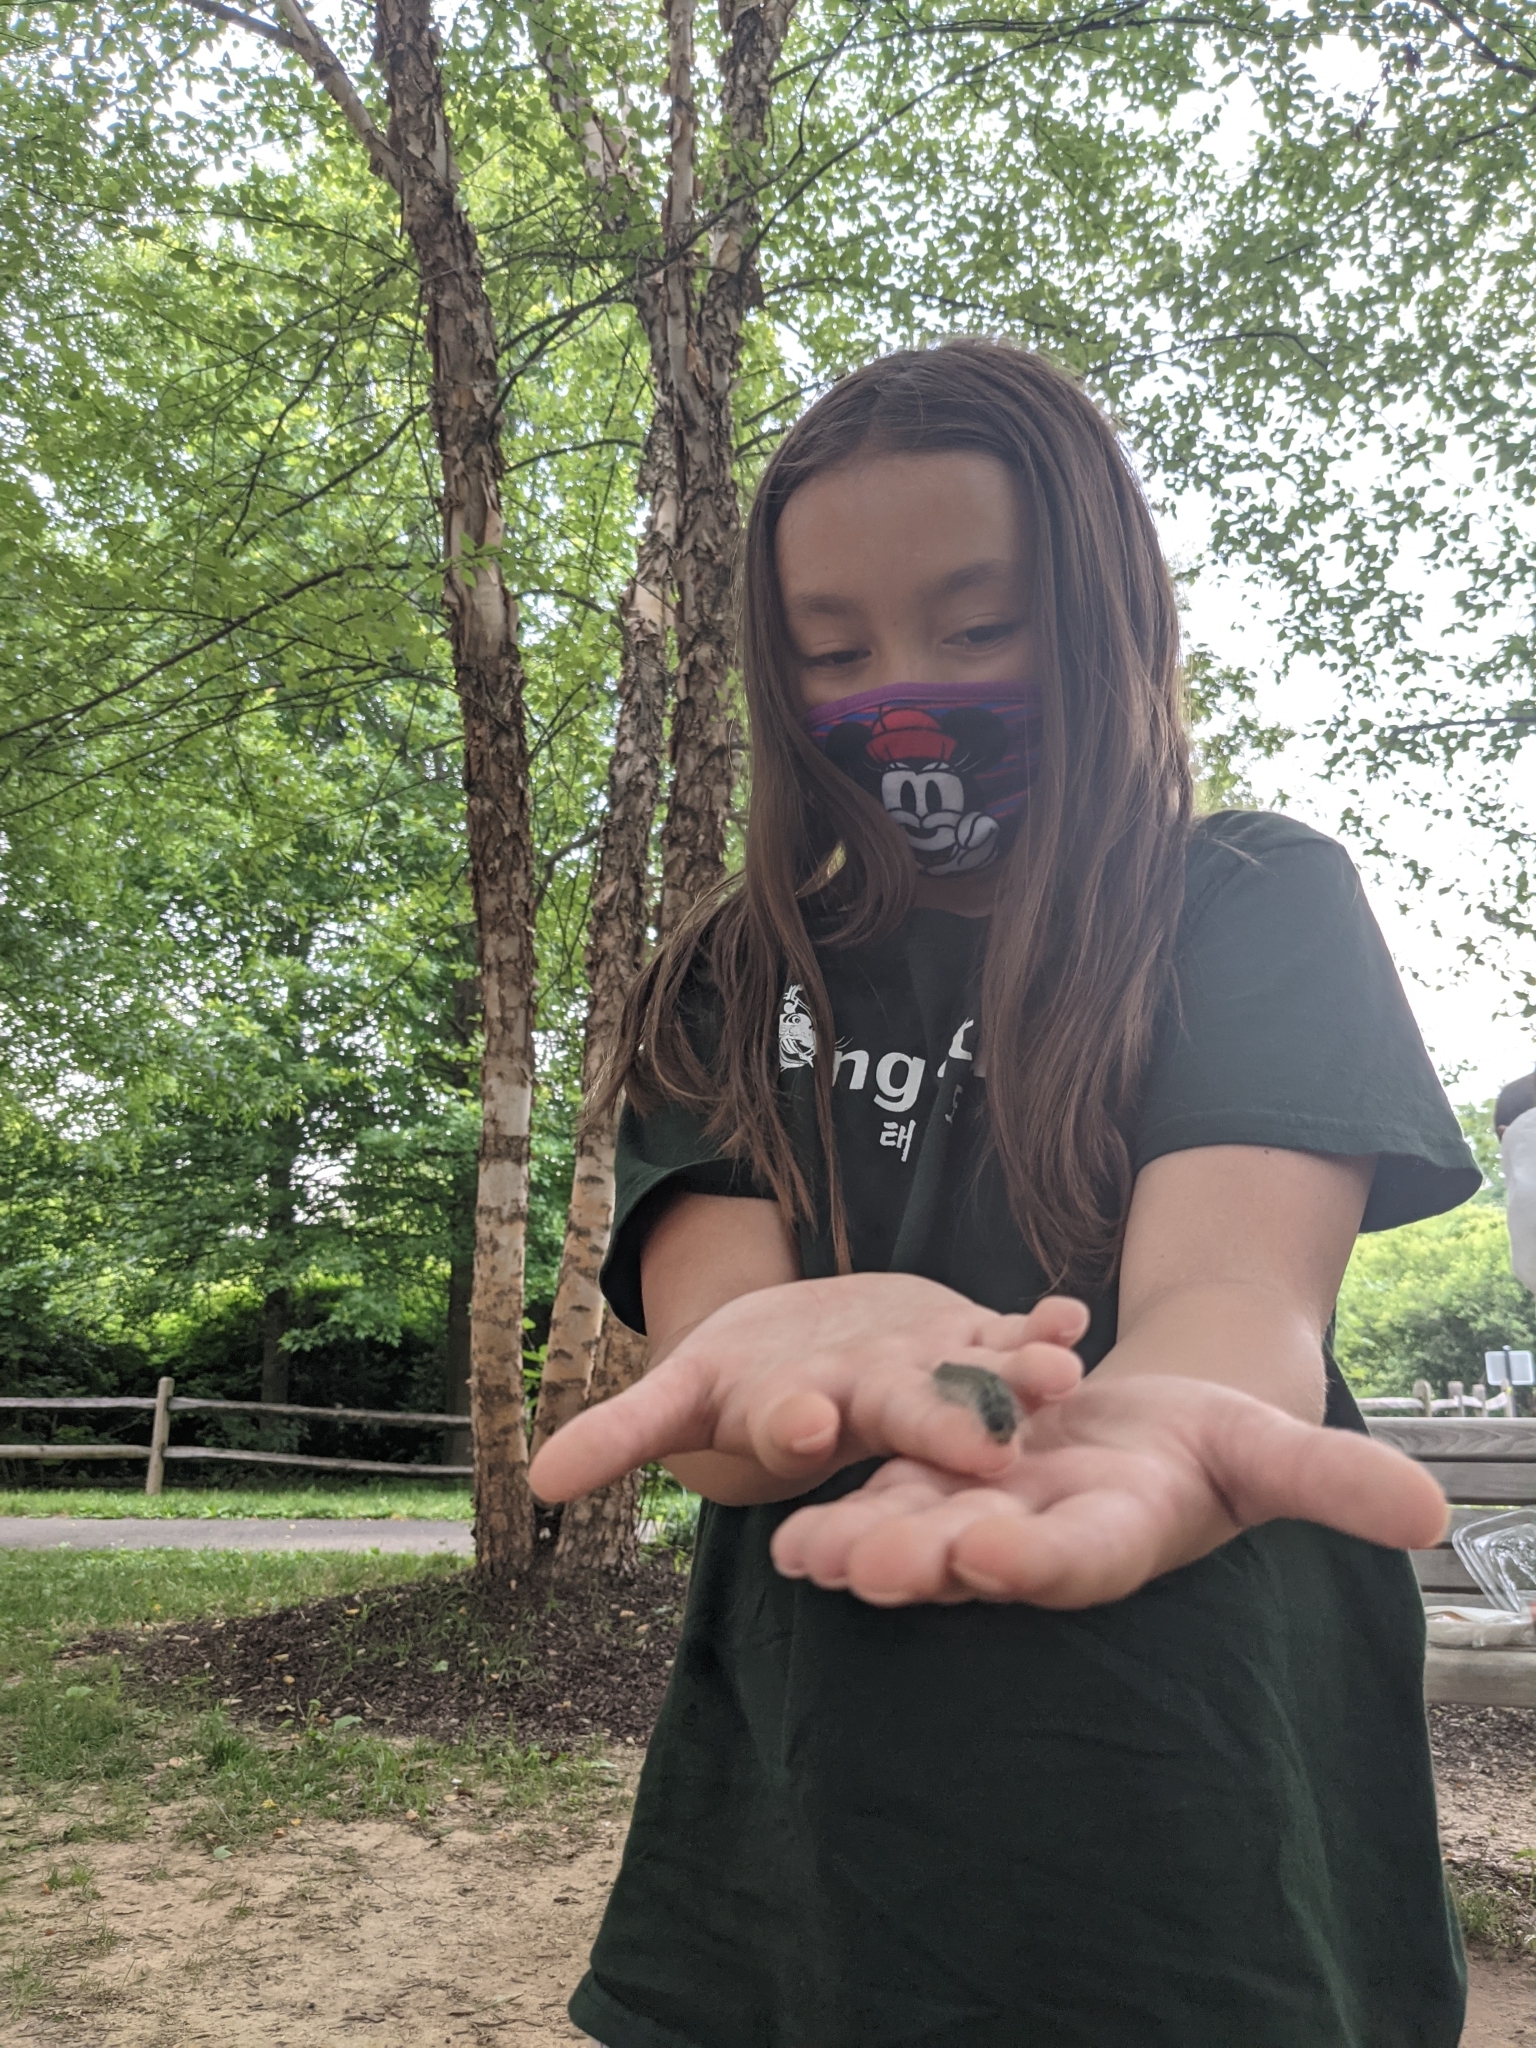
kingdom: Animalia
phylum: Arthropoda
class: Insecta
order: Lepidoptera
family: Noctuidae
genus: Acronicta
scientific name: Acronicta lobeliae
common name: Greater oak dagger
